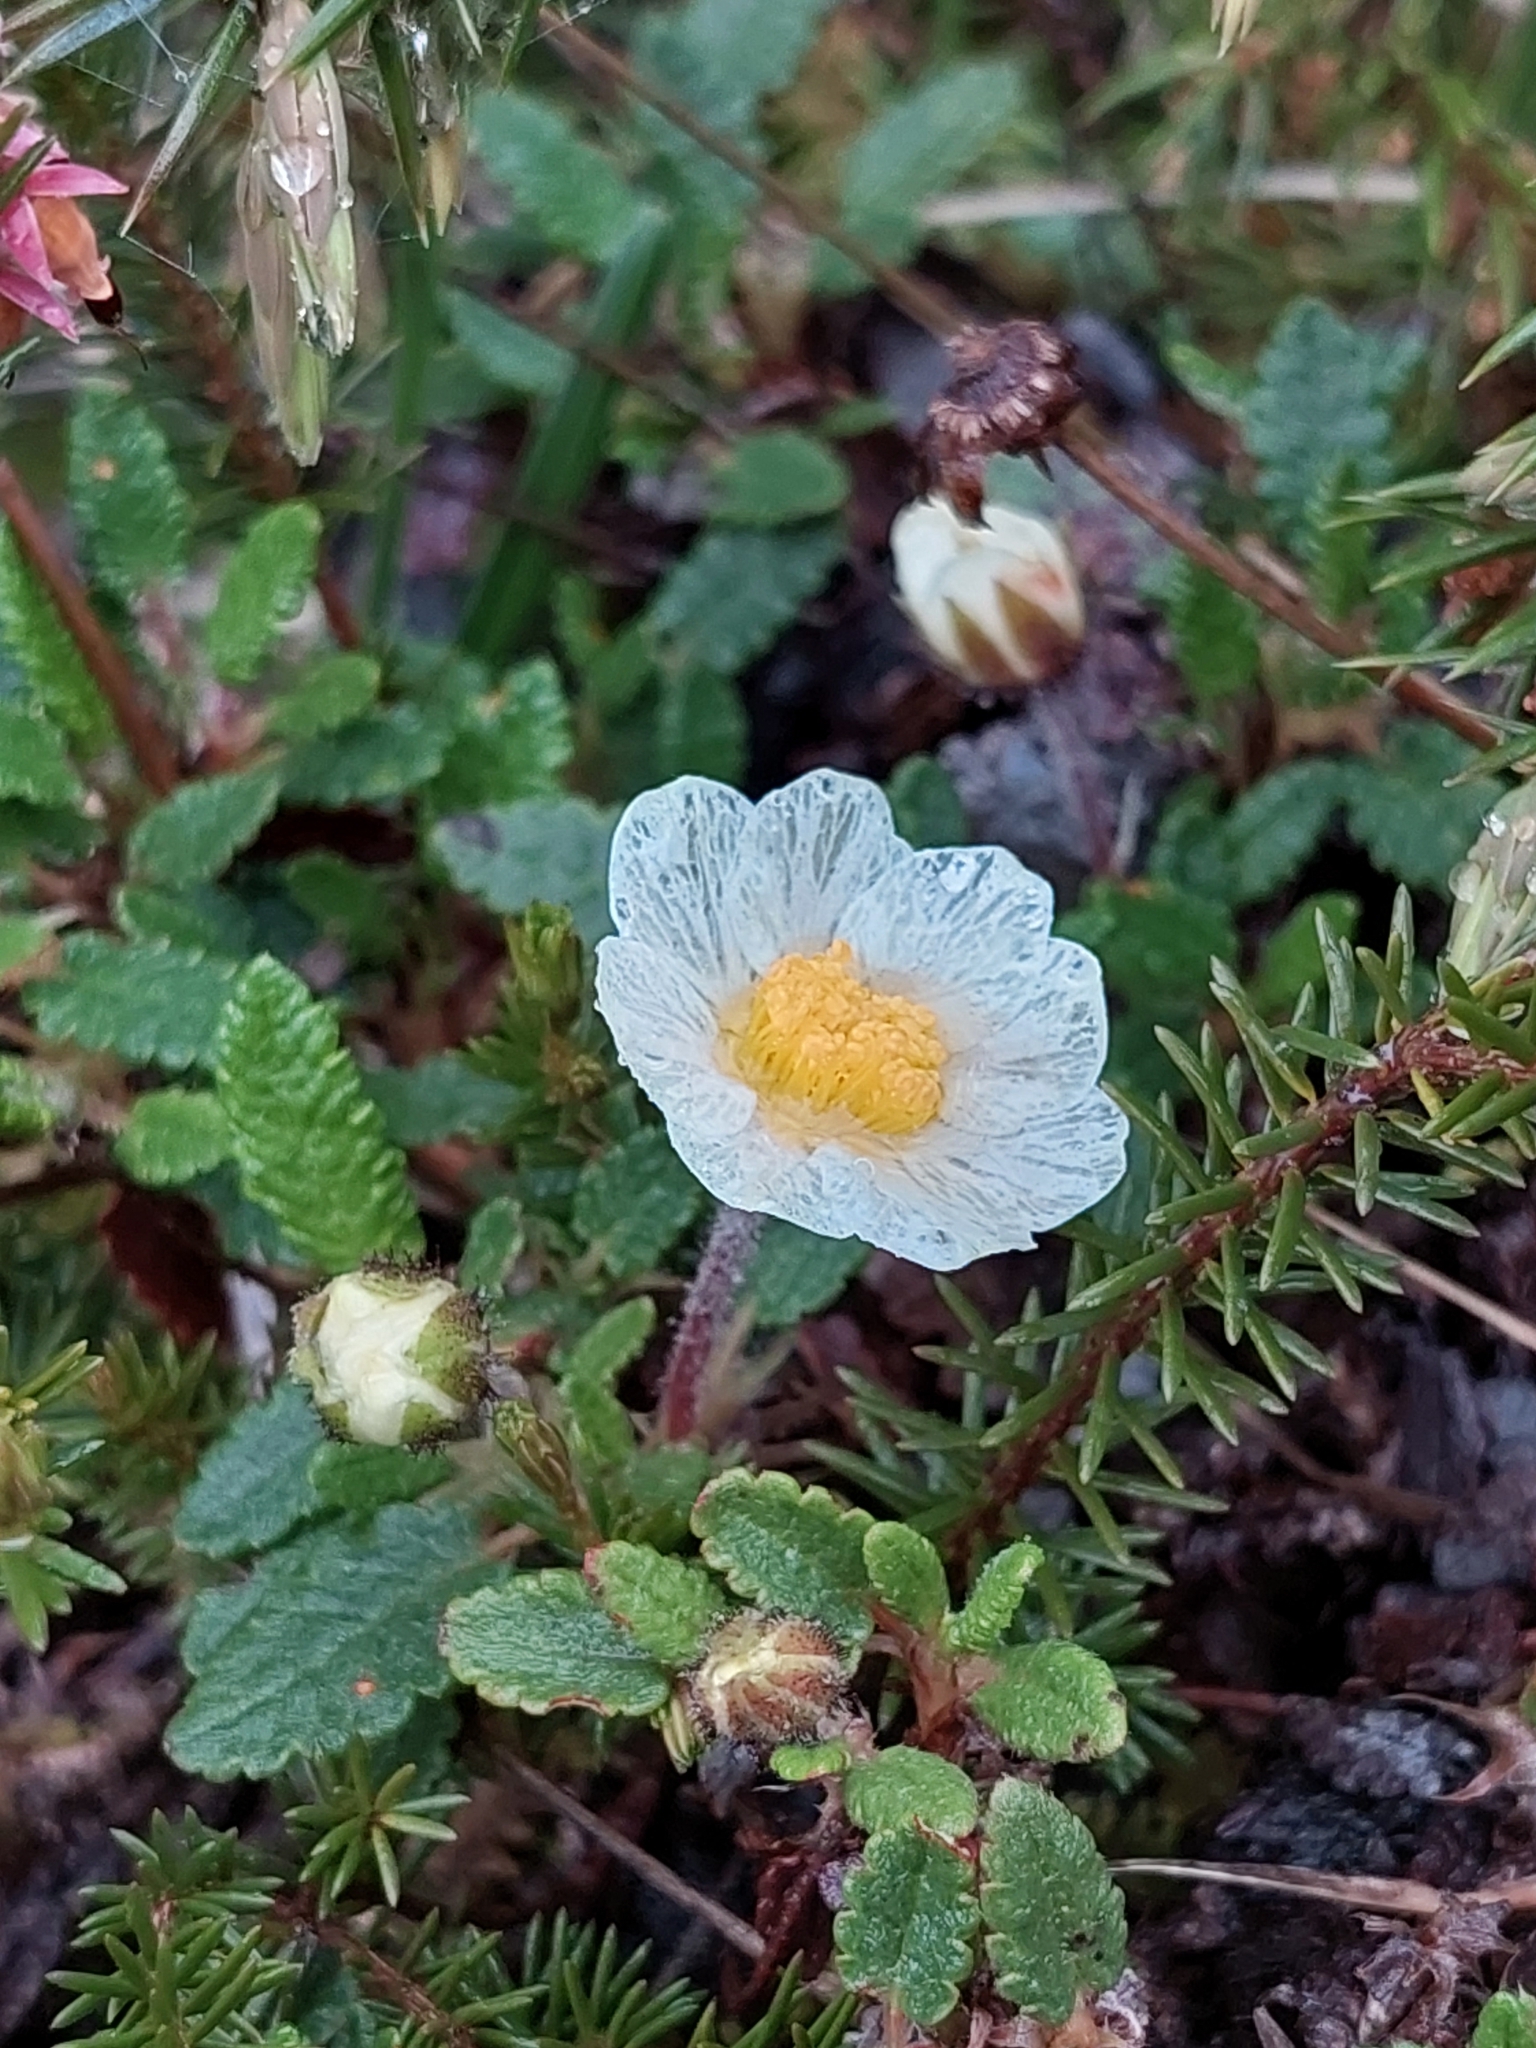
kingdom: Plantae
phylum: Tracheophyta
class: Magnoliopsida
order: Rosales
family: Rosaceae
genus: Dryas
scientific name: Dryas octopetala
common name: Eight-petal mountain-avens
